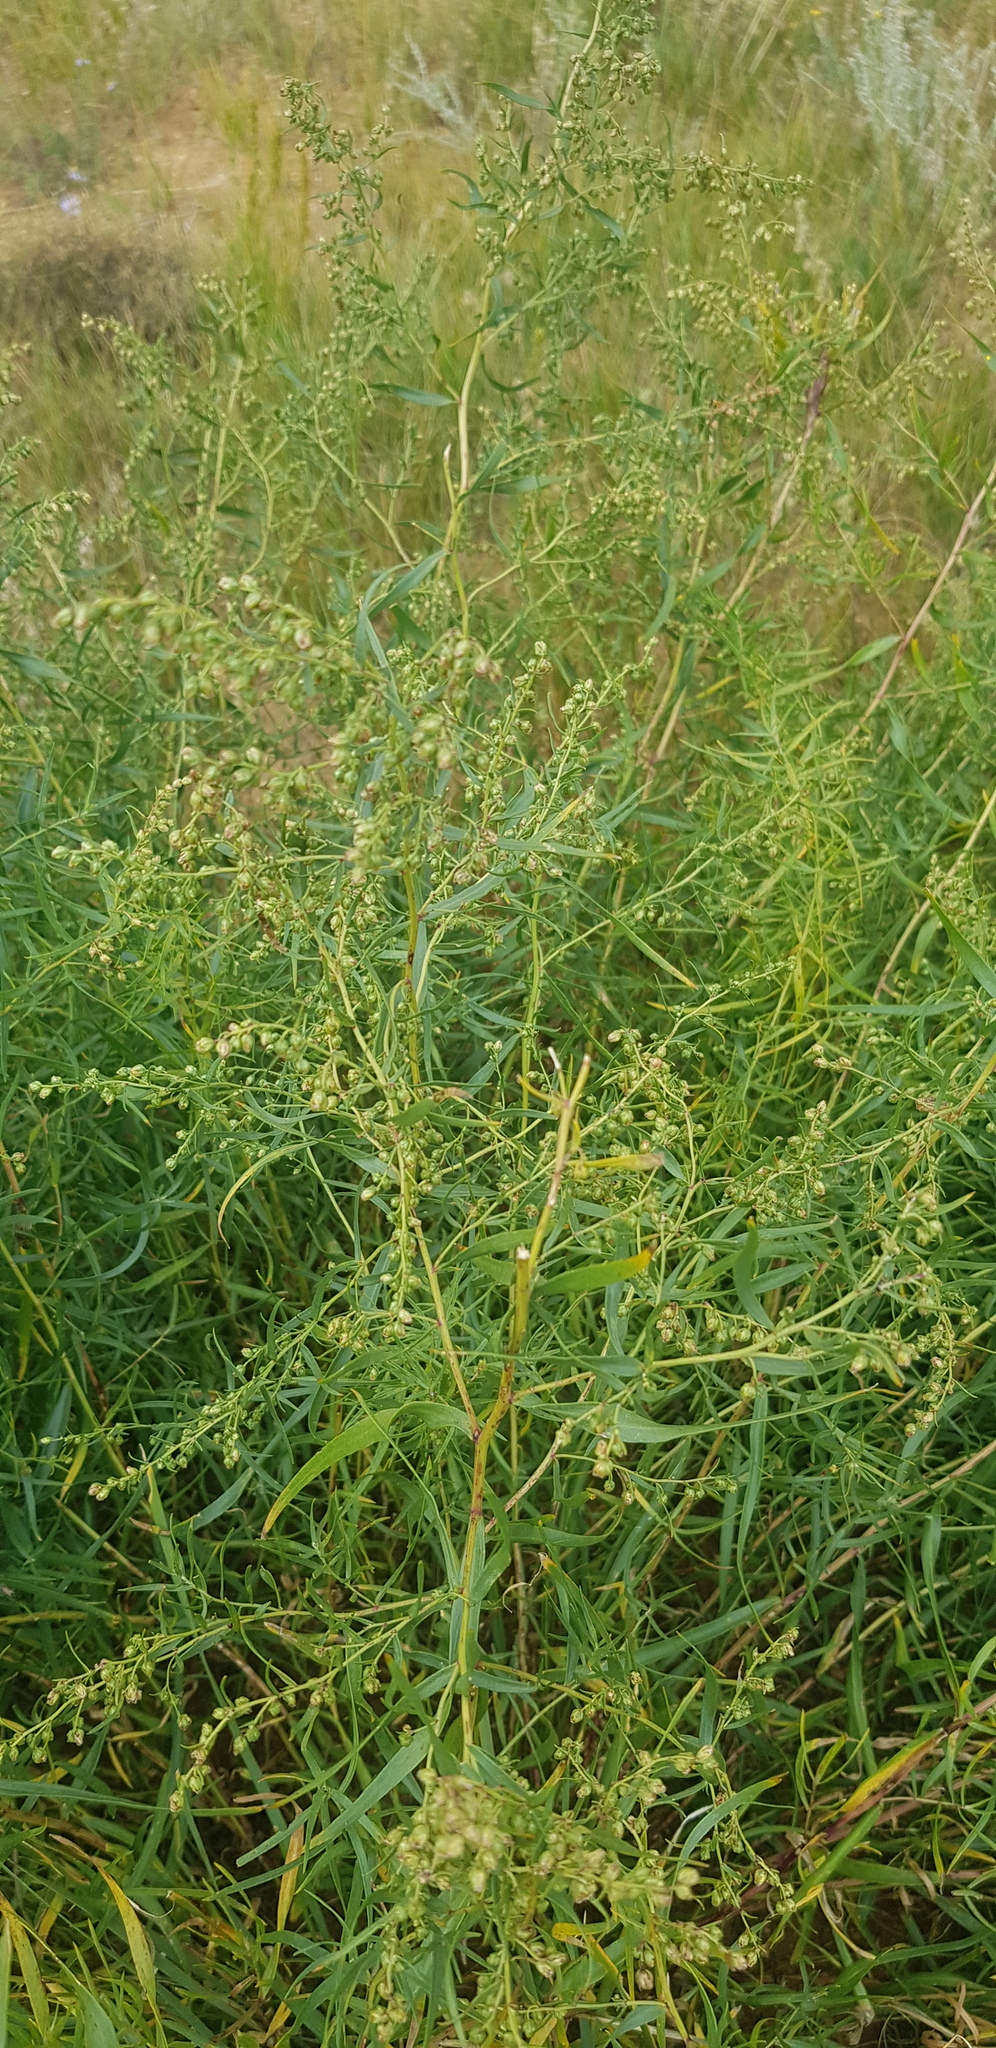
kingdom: Plantae
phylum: Tracheophyta
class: Magnoliopsida
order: Asterales
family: Asteraceae
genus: Artemisia
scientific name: Artemisia dracunculus
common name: Tarragon
